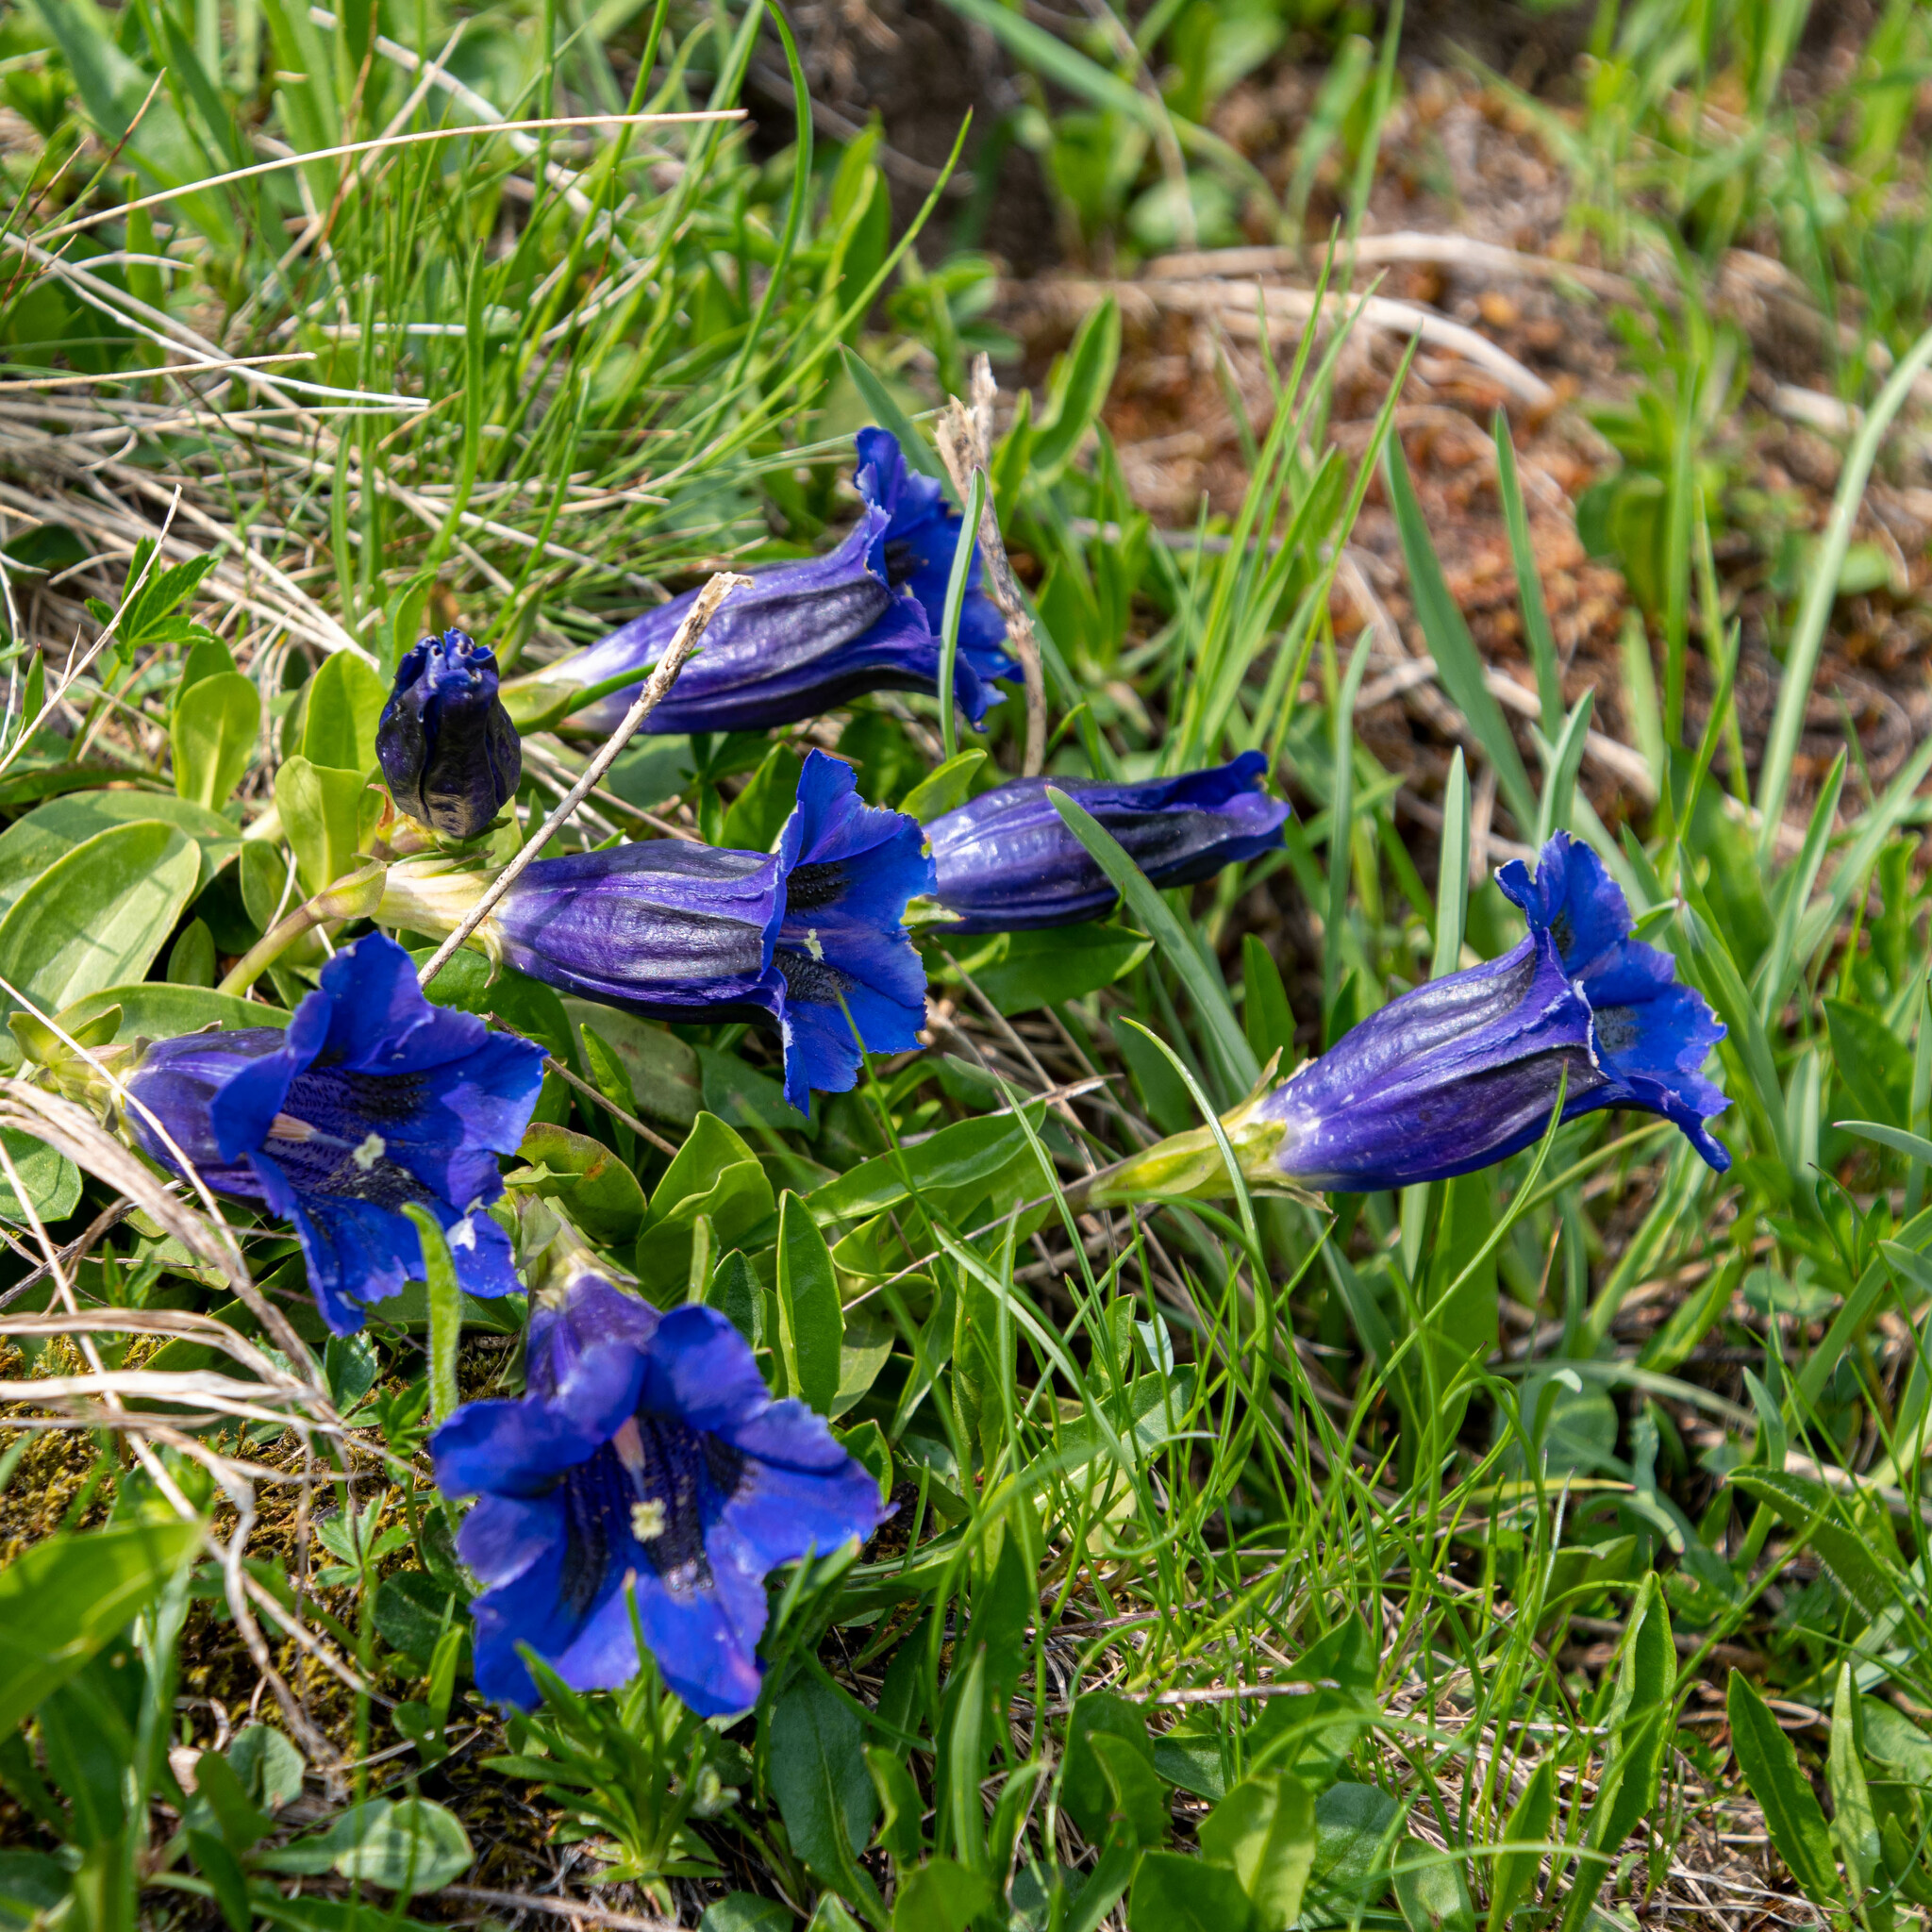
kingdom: Plantae
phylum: Tracheophyta
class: Magnoliopsida
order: Gentianales
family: Gentianaceae
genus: Gentiana
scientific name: Gentiana acaulis
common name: Trumpet gentian
